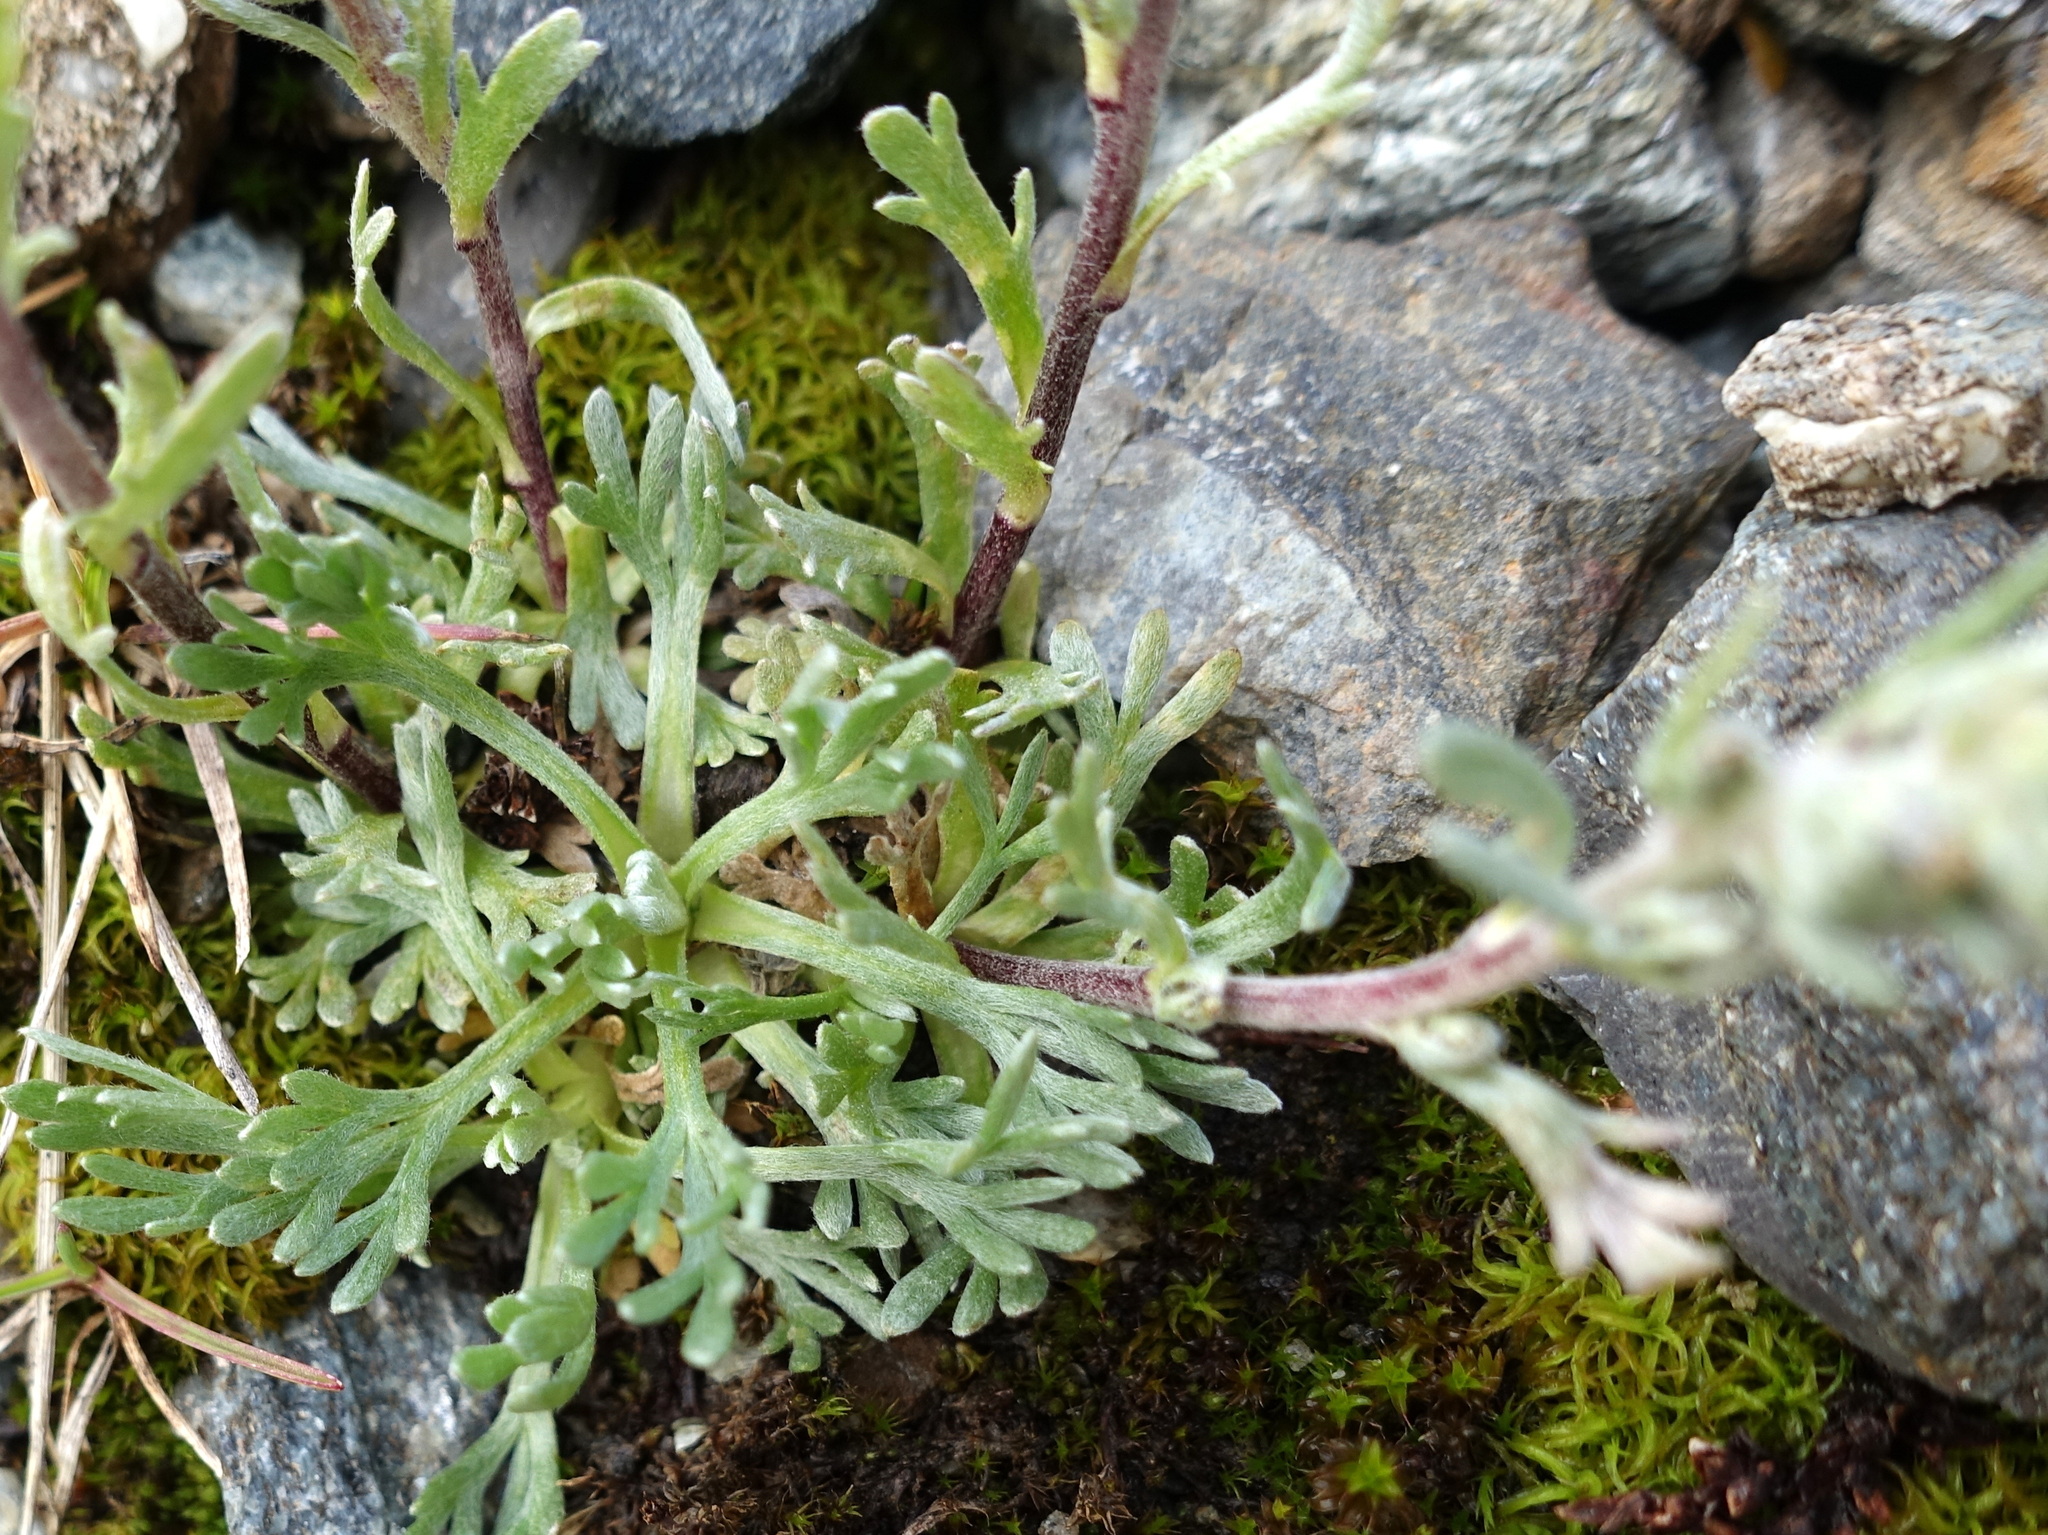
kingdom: Plantae
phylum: Tracheophyta
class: Magnoliopsida
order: Asterales
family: Asteraceae
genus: Artemisia
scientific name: Artemisia genipi
